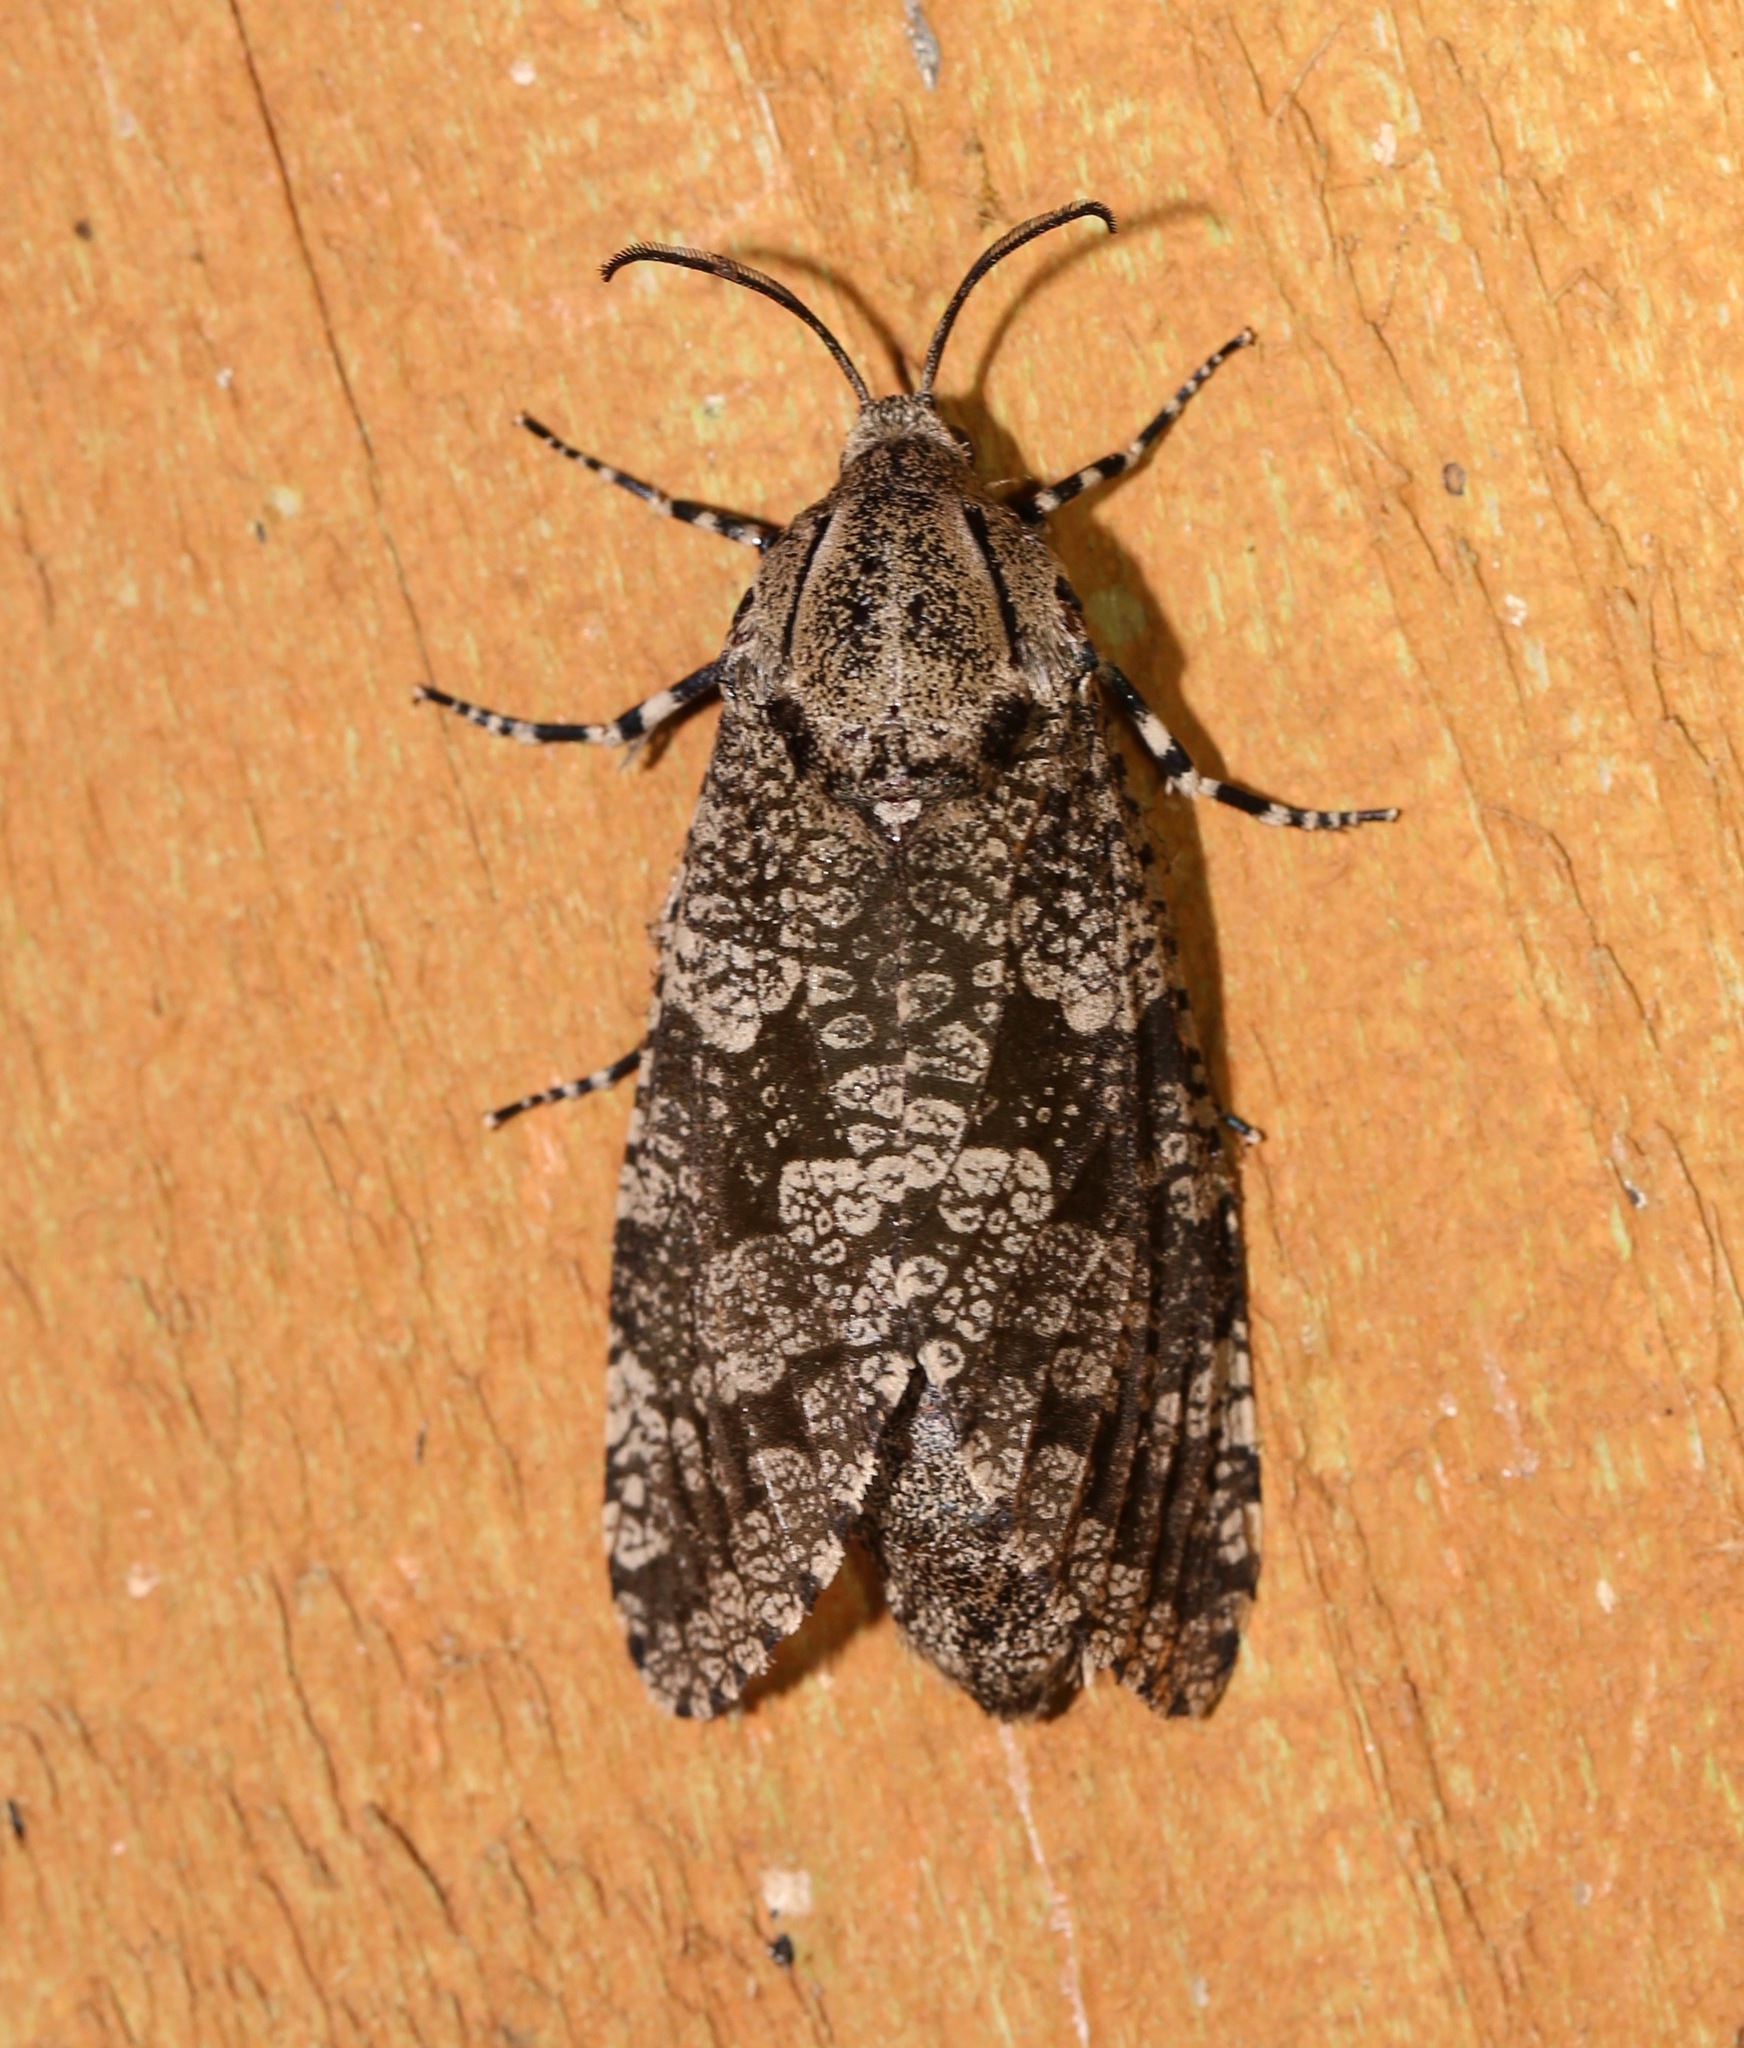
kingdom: Animalia
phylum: Arthropoda
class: Insecta
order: Lepidoptera
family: Cossidae
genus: Prionoxystus
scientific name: Prionoxystus robiniae
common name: Carpenterworm
